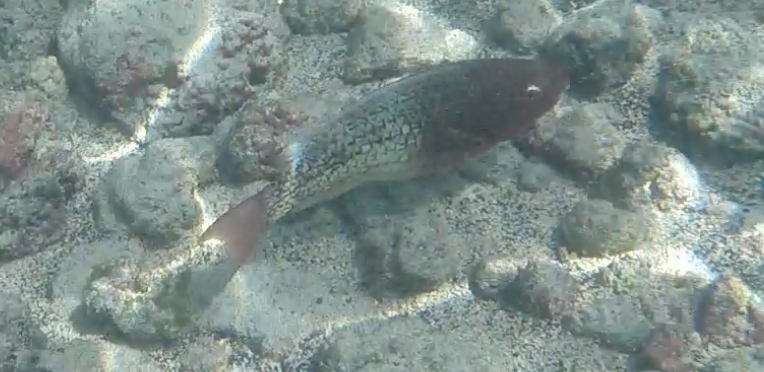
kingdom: Animalia
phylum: Chordata
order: Perciformes
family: Scaridae
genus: Scarus
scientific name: Scarus rubroviolaceus
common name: Ember parrotfish
